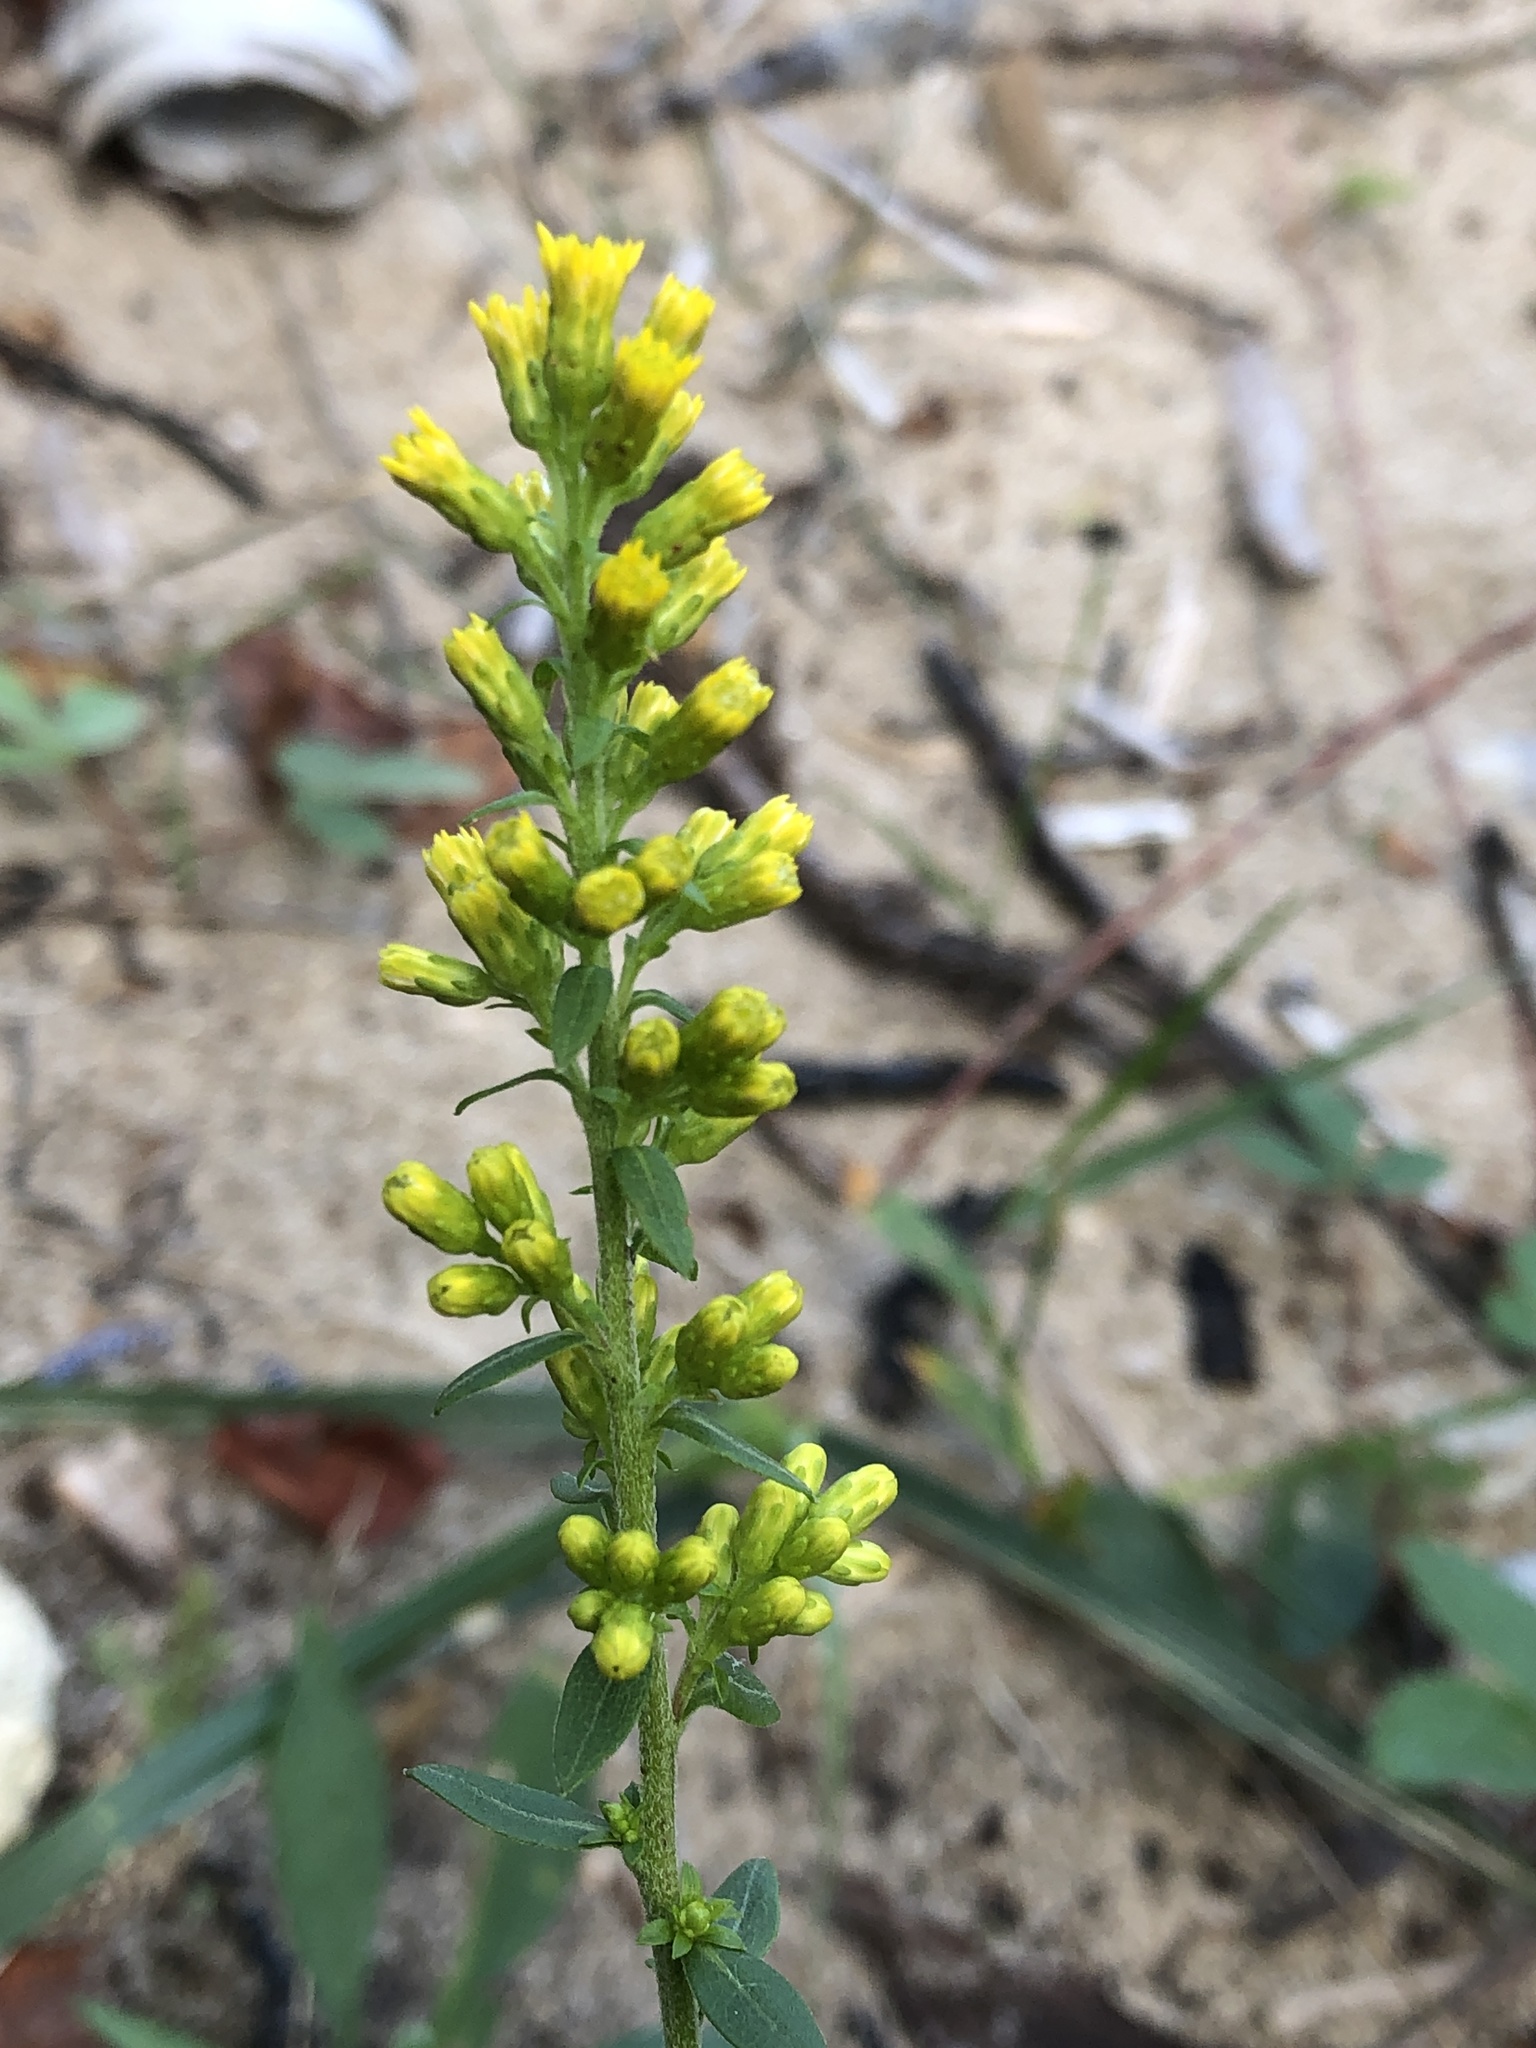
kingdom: Plantae
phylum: Tracheophyta
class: Magnoliopsida
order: Asterales
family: Asteraceae
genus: Solidago
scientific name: Solidago hispida
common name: Hairy goldenrod
